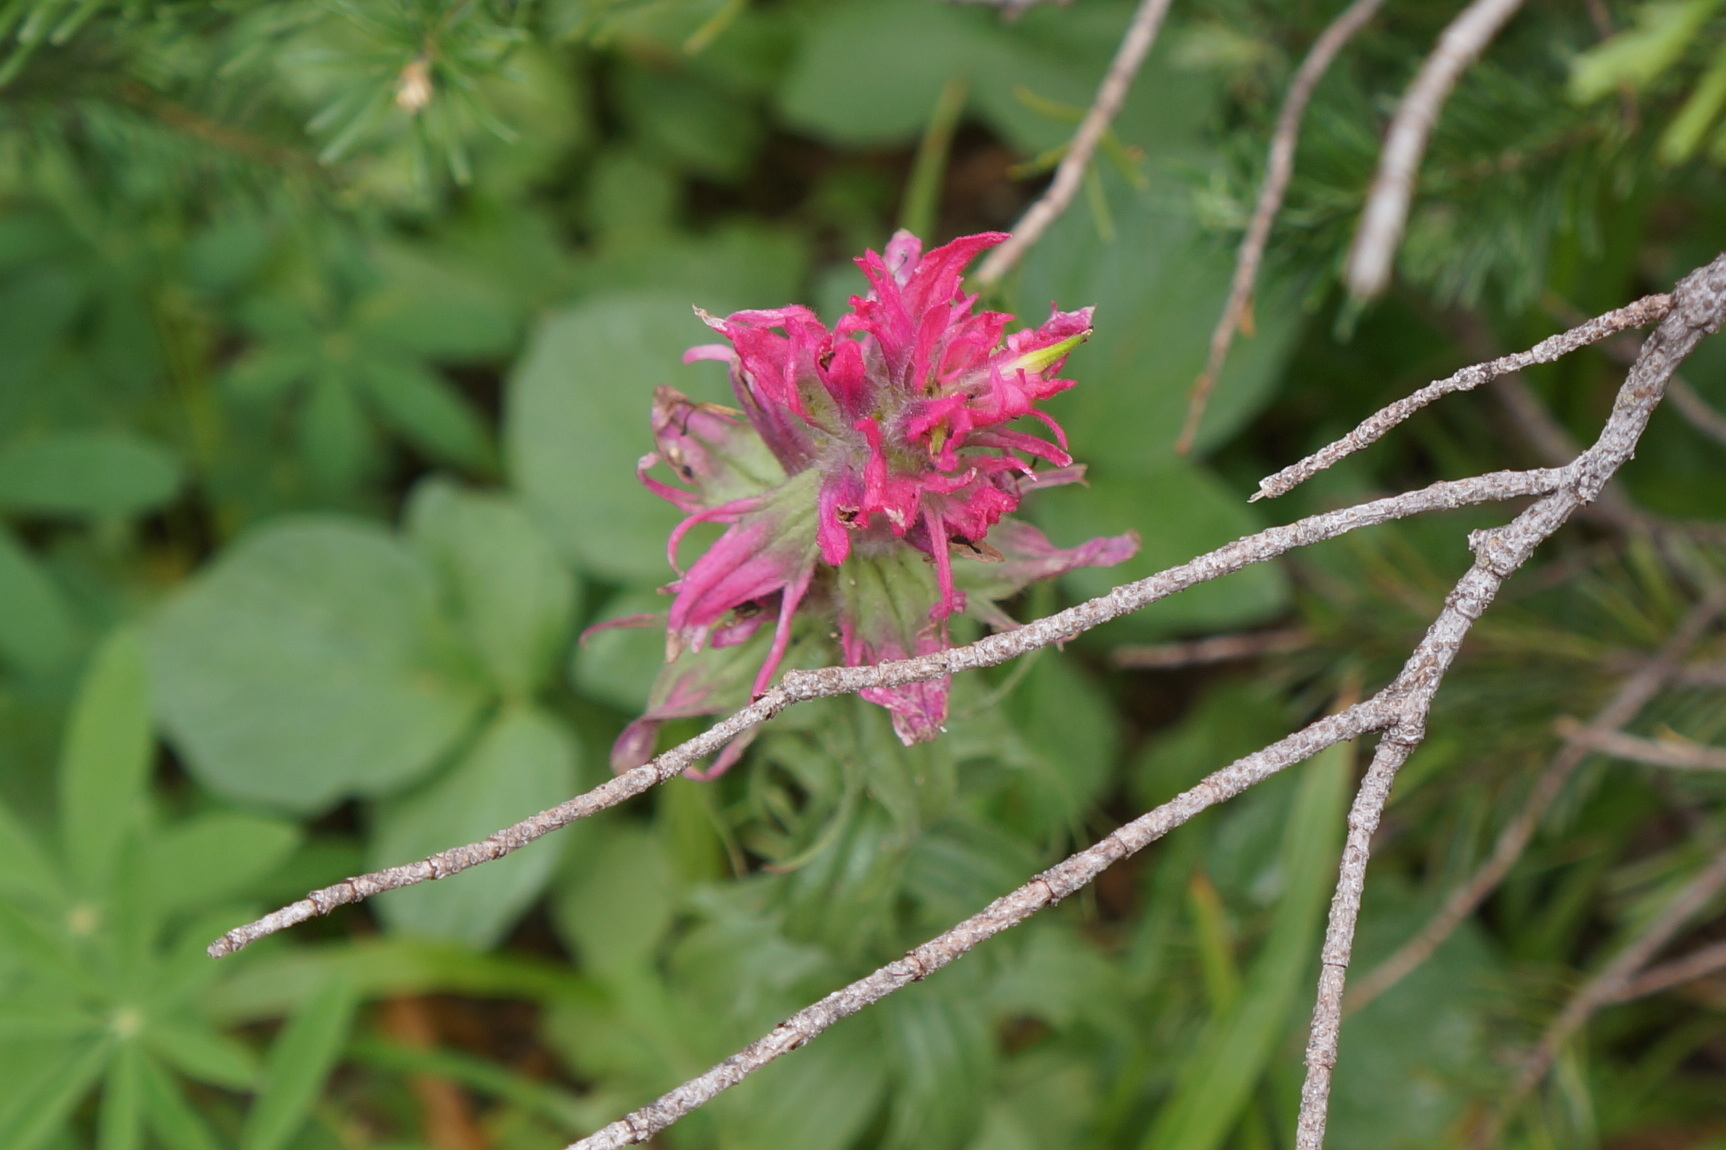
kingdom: Plantae
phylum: Tracheophyta
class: Magnoliopsida
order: Lamiales
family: Orobanchaceae
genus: Castilleja
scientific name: Castilleja parviflora
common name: Mountain paintbrush
